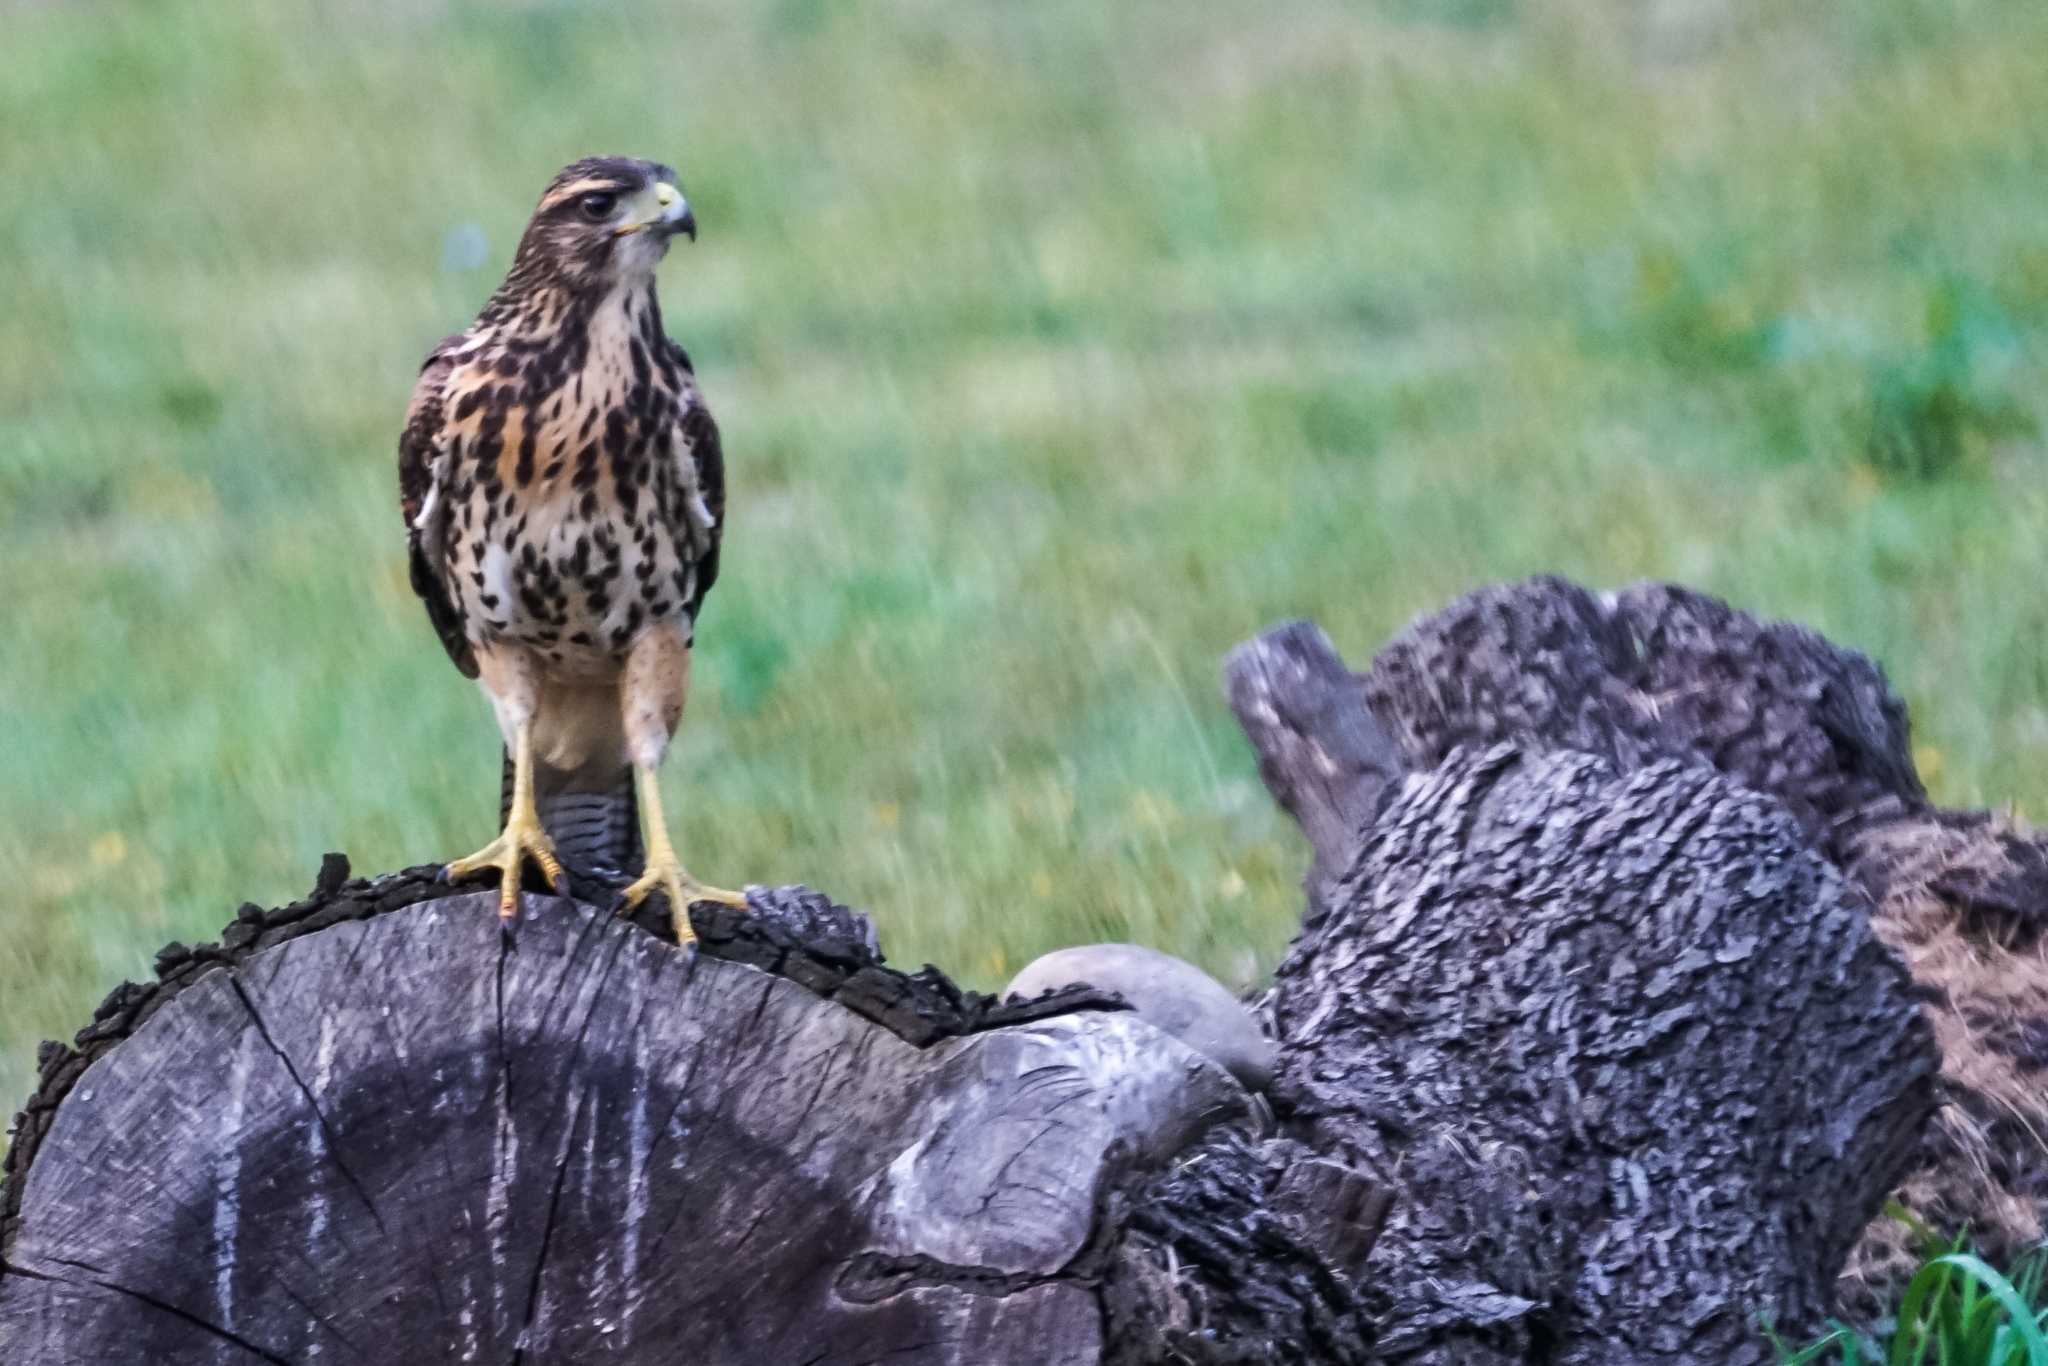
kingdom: Animalia
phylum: Chordata
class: Aves
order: Accipitriformes
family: Accipitridae
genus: Parabuteo
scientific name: Parabuteo unicinctus
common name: Harris's hawk
